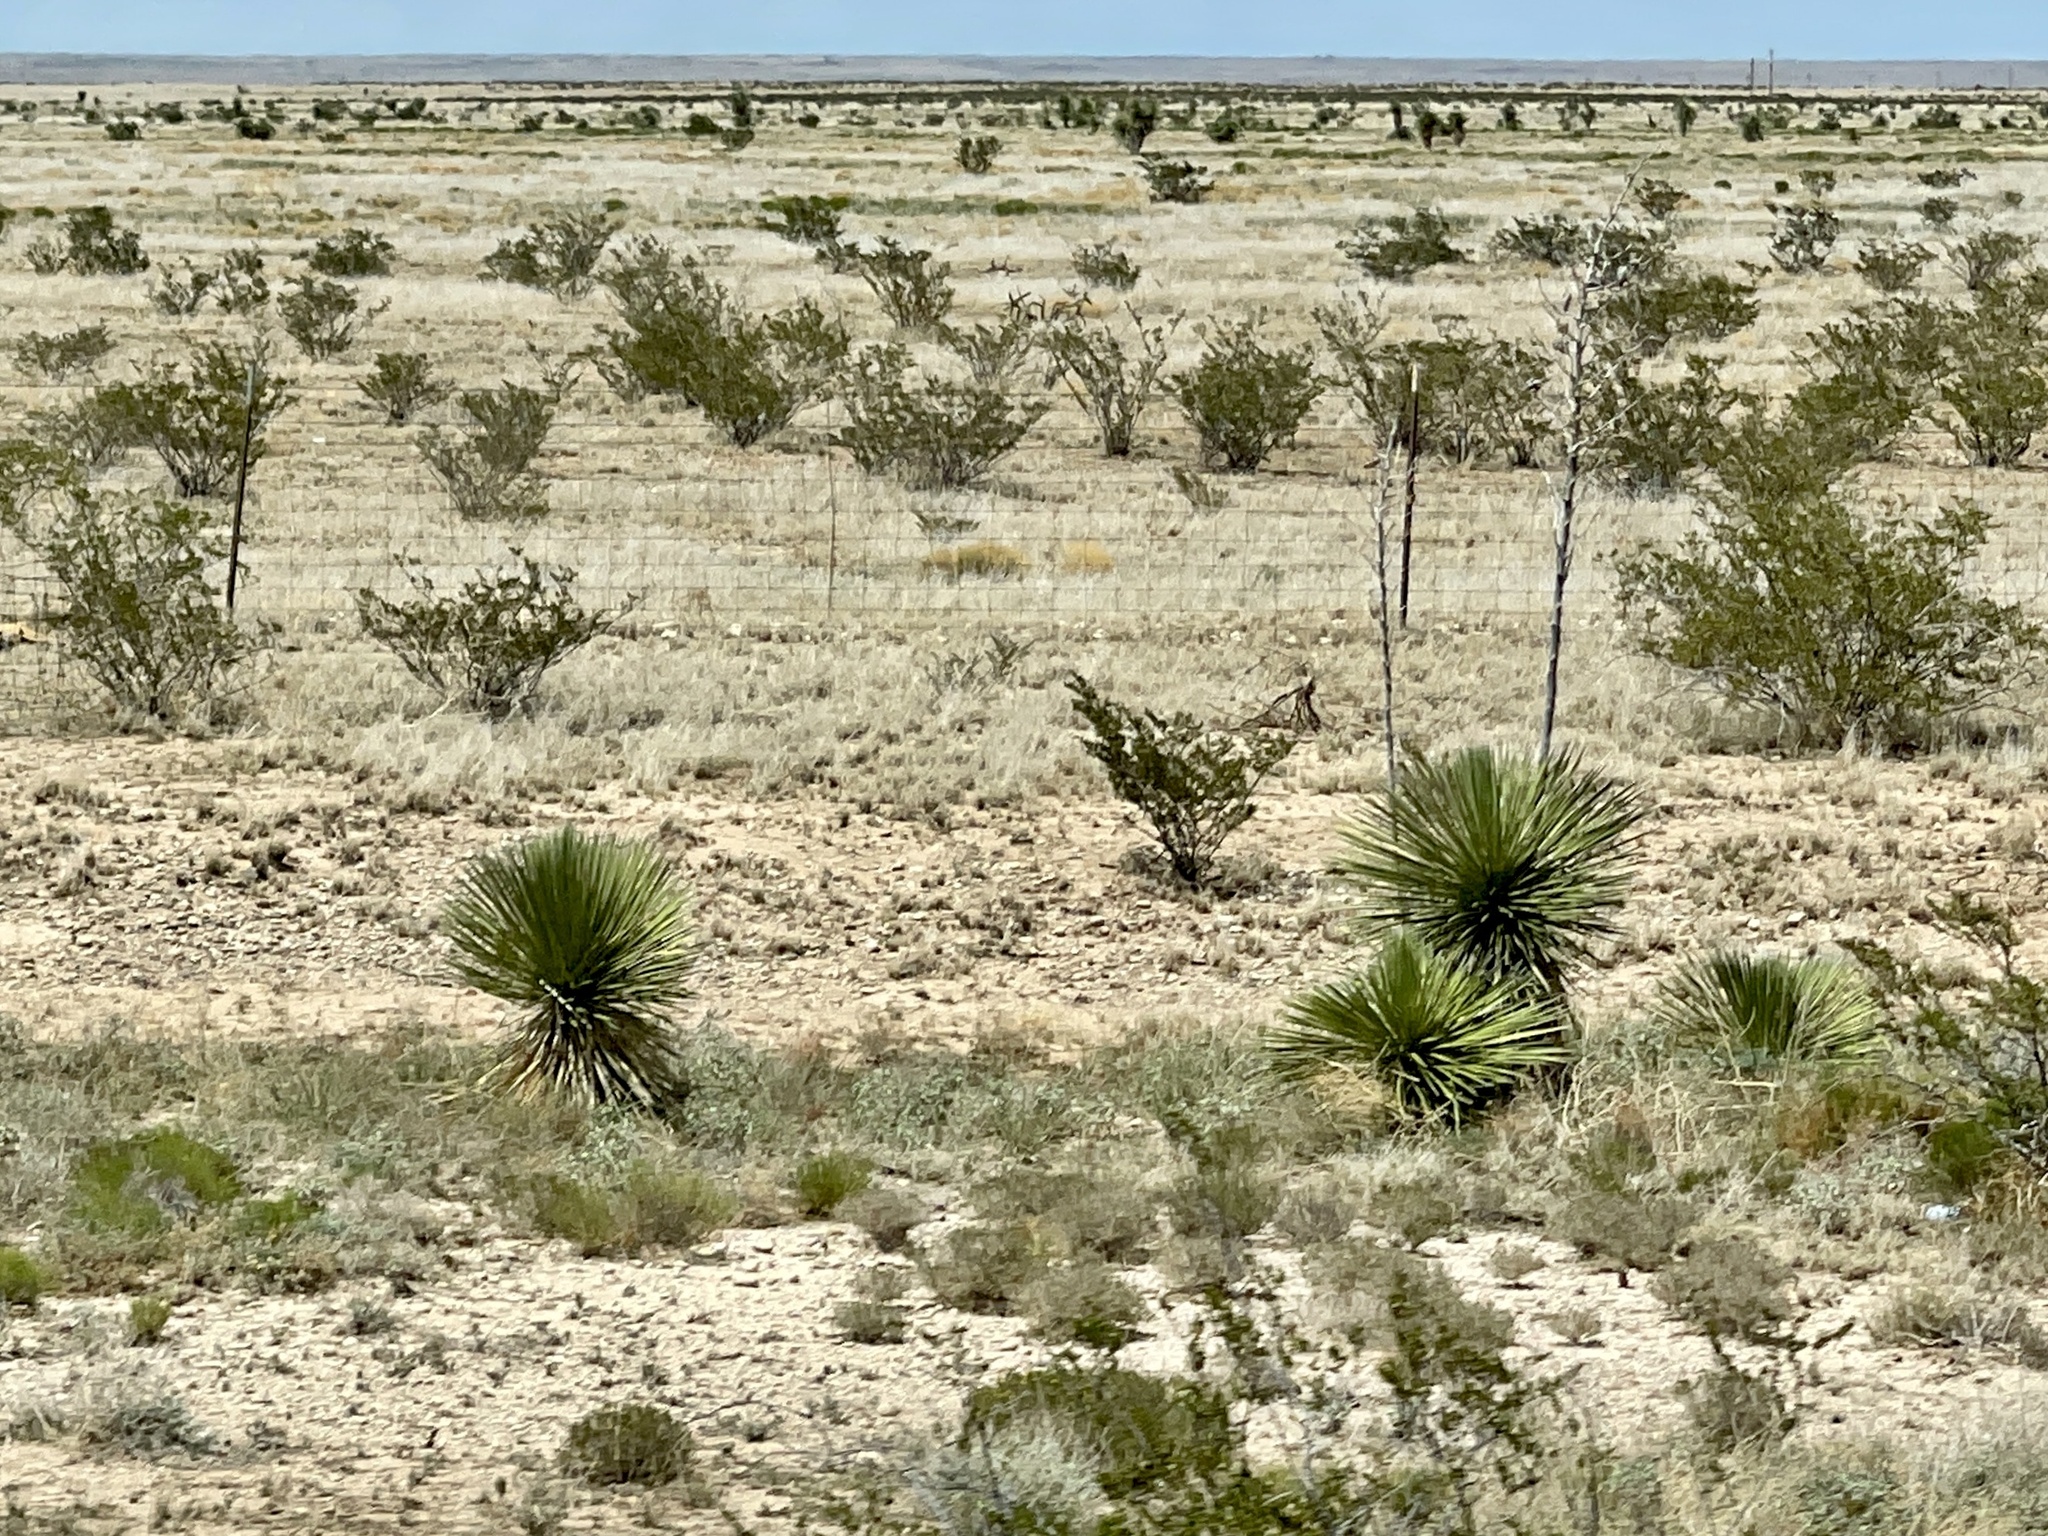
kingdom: Plantae
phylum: Tracheophyta
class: Liliopsida
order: Asparagales
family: Asparagaceae
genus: Yucca
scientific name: Yucca elata
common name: Palmella
